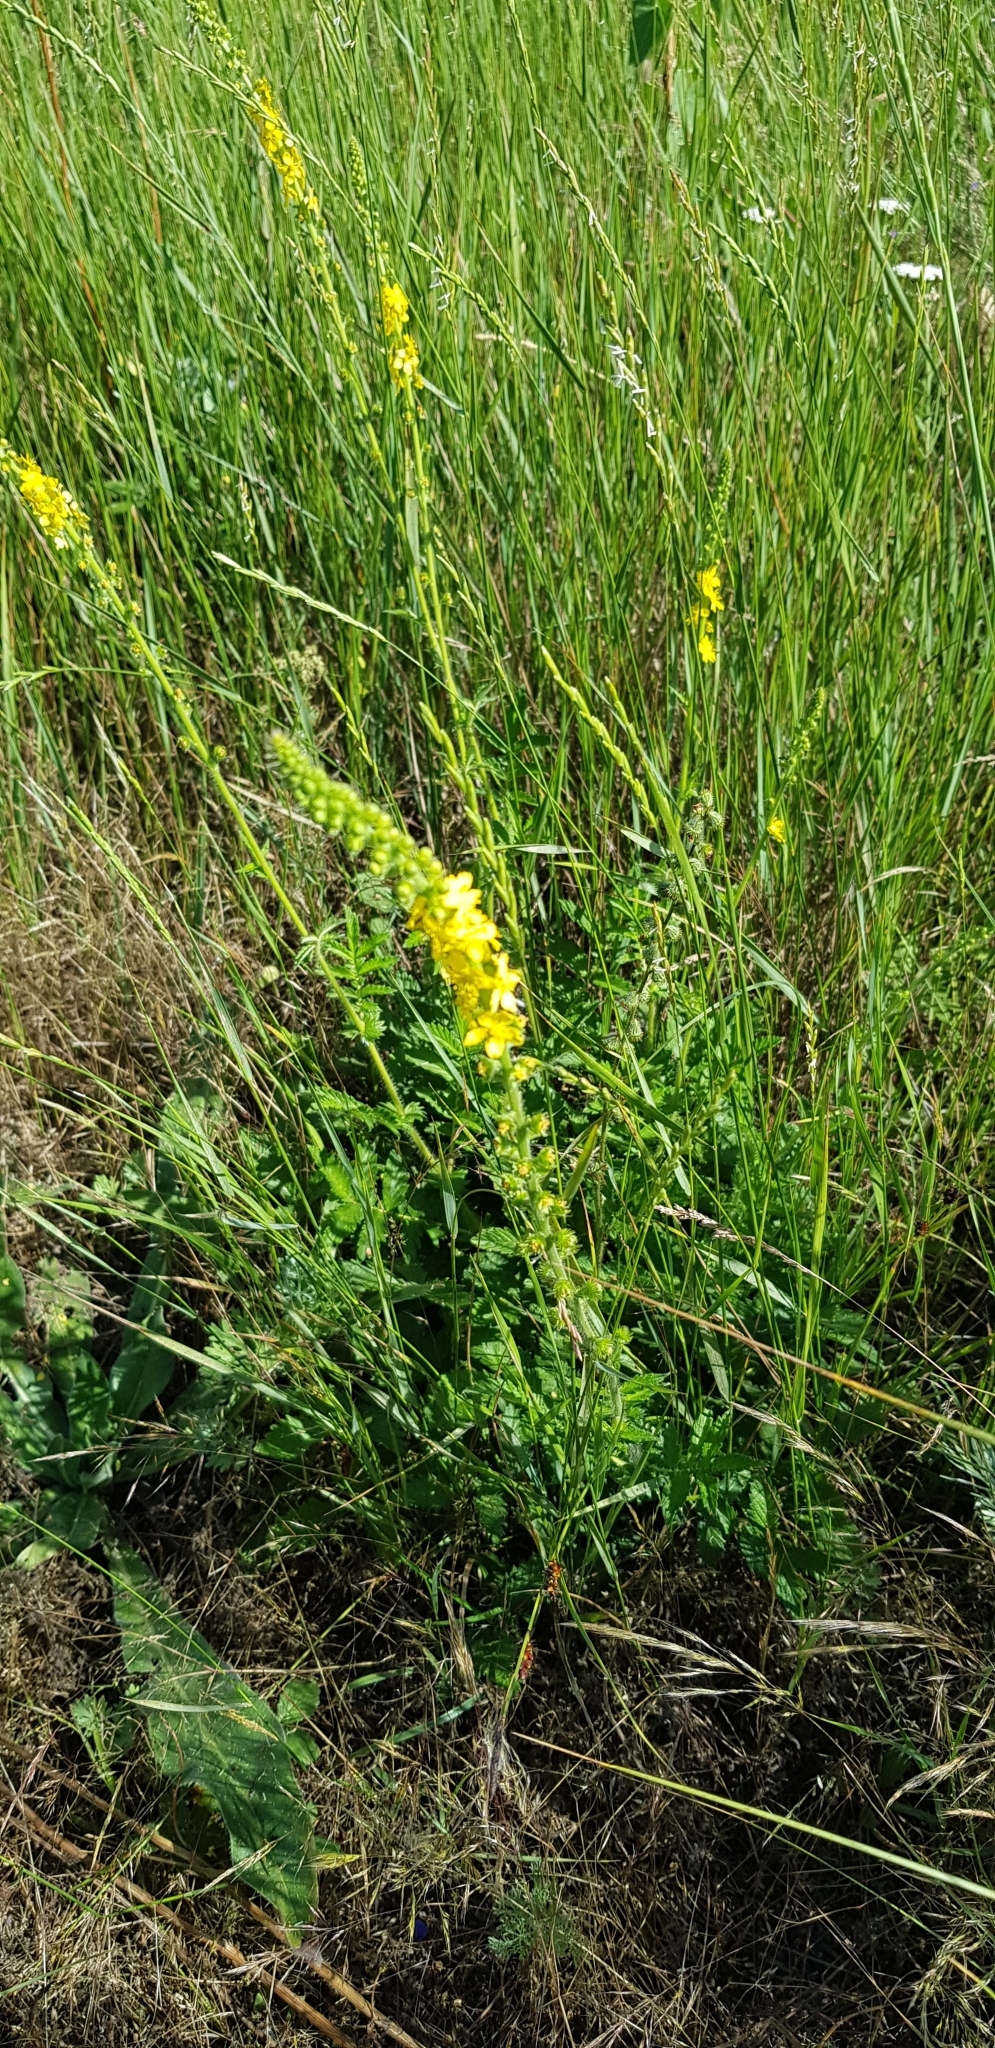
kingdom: Plantae
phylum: Tracheophyta
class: Magnoliopsida
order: Rosales
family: Rosaceae
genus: Agrimonia
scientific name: Agrimonia eupatoria
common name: Agrimony
